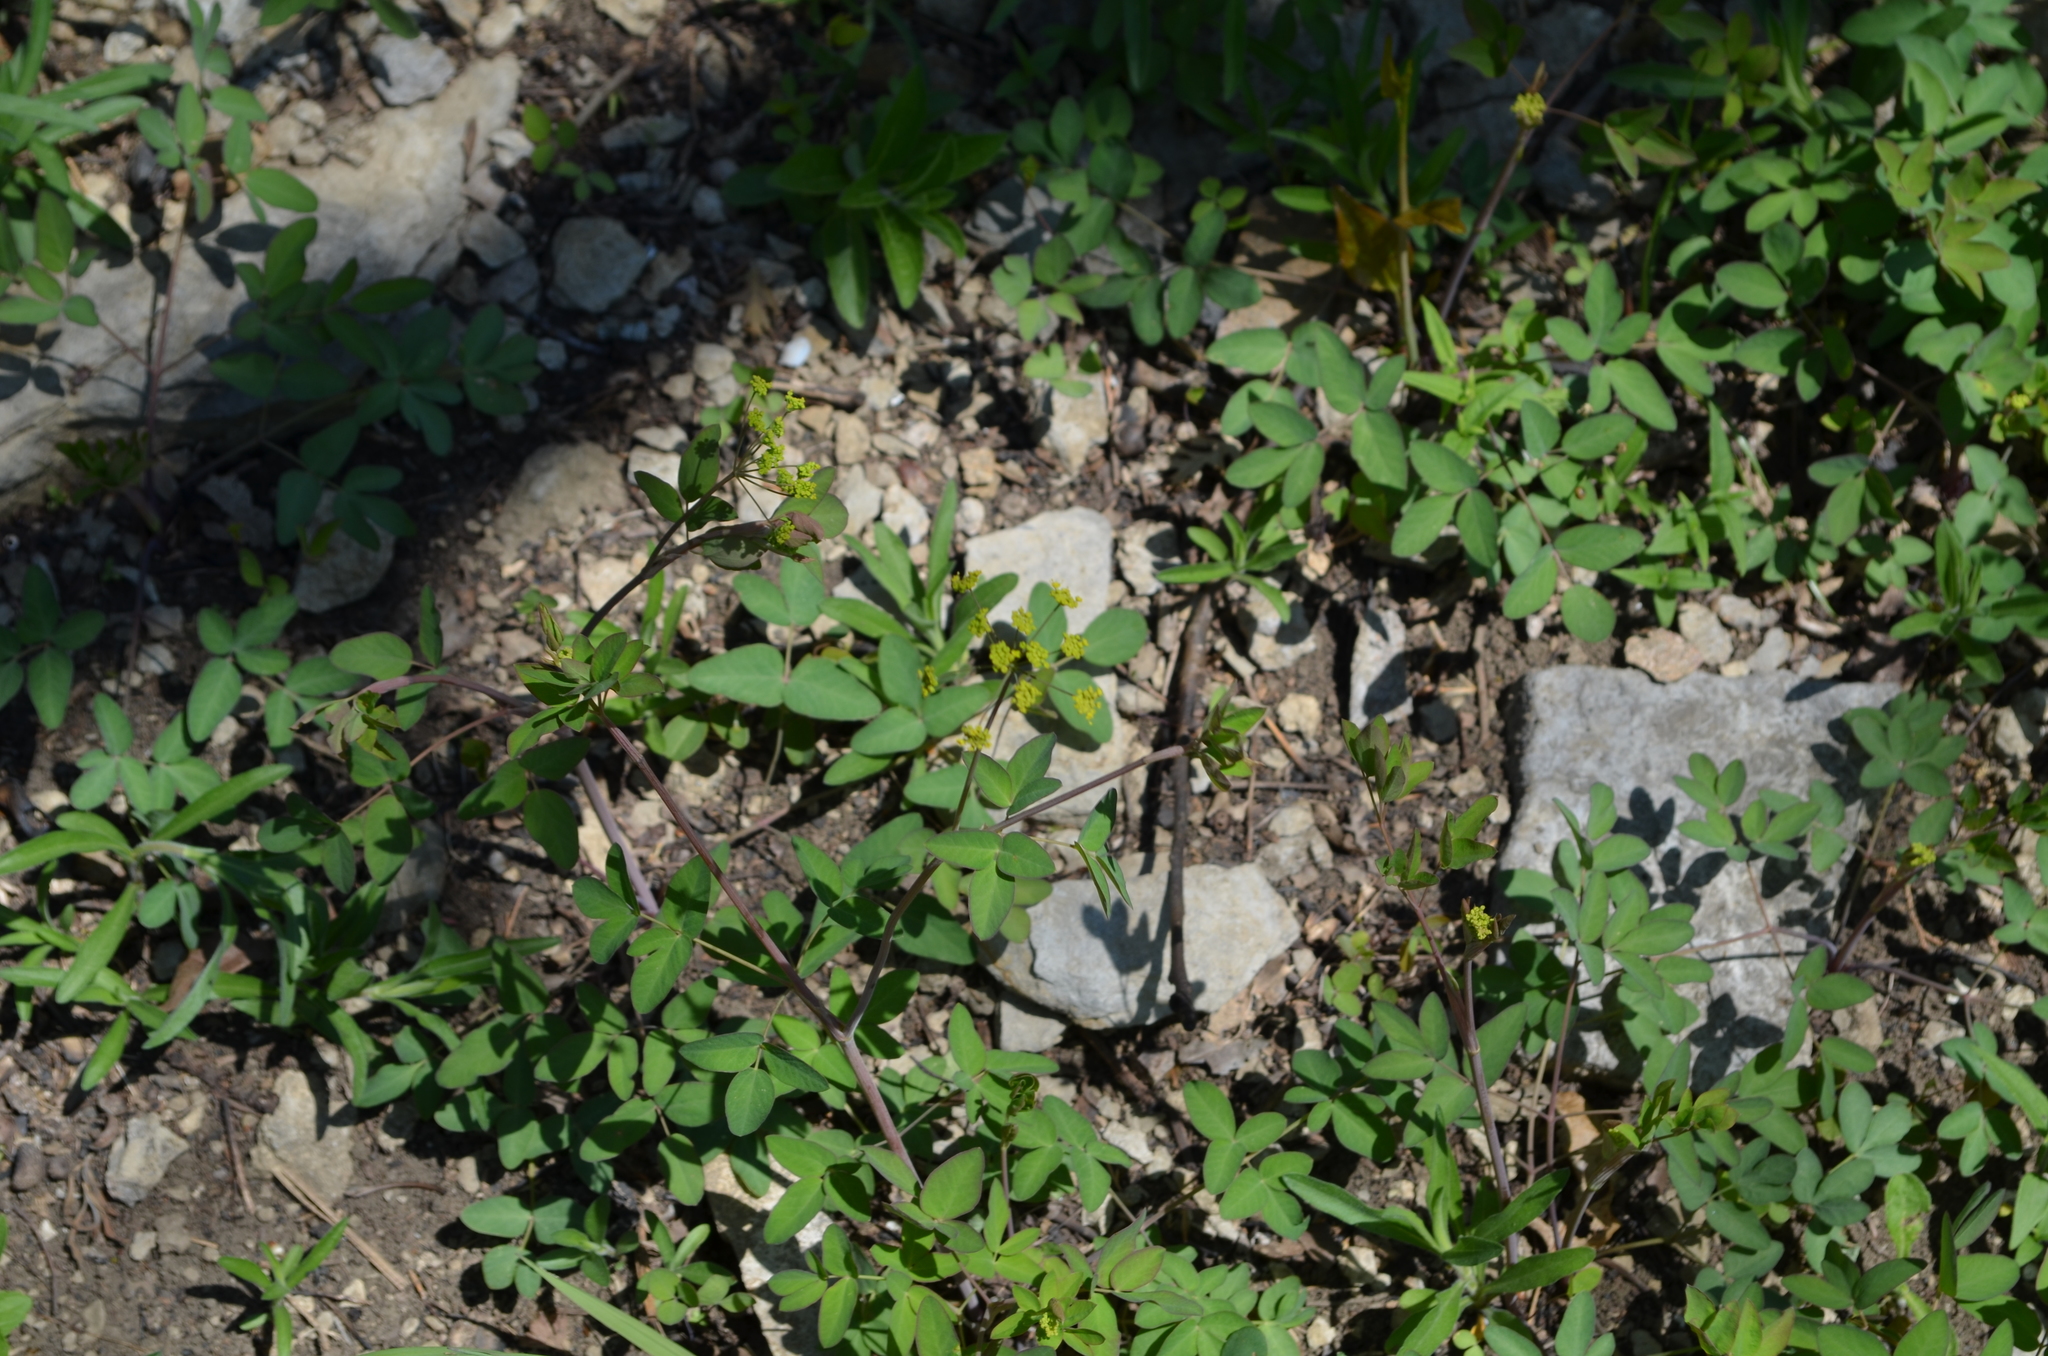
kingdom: Plantae
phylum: Tracheophyta
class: Magnoliopsida
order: Apiales
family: Apiaceae
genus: Taenidia
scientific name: Taenidia integerrima
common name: Golden alexander
